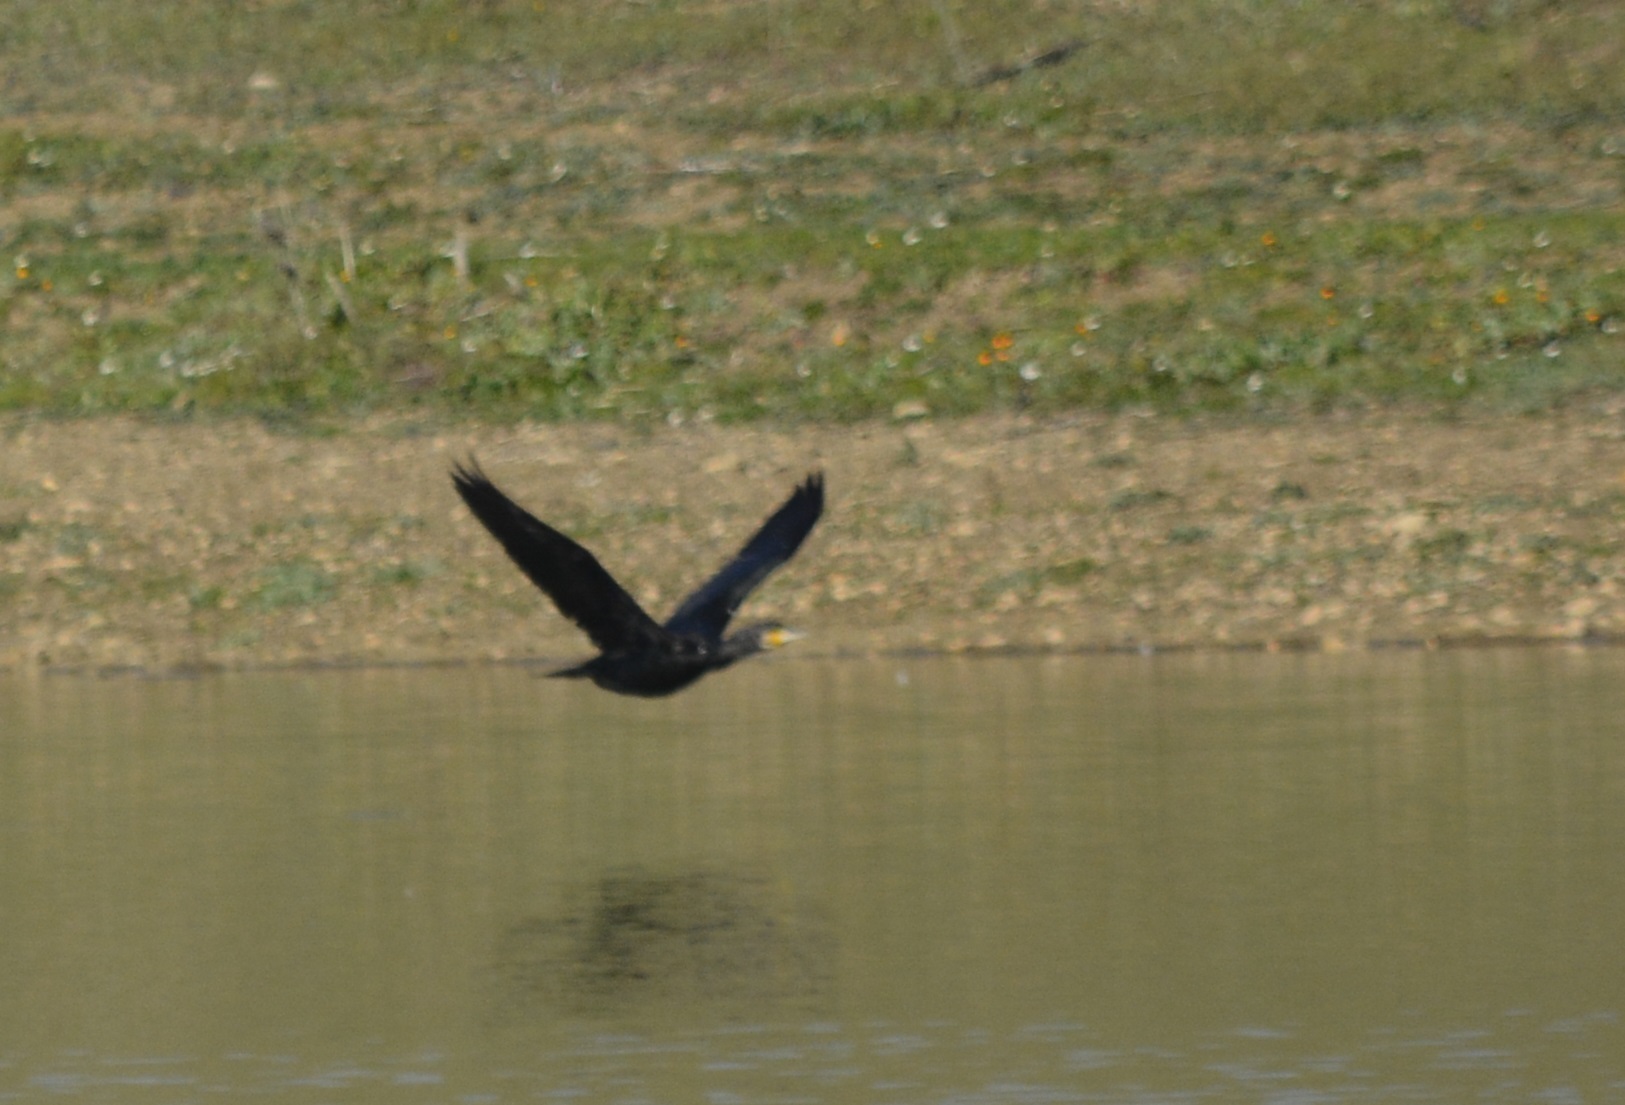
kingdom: Animalia
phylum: Chordata
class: Aves
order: Suliformes
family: Phalacrocoracidae
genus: Phalacrocorax
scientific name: Phalacrocorax carbo
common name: Great cormorant
